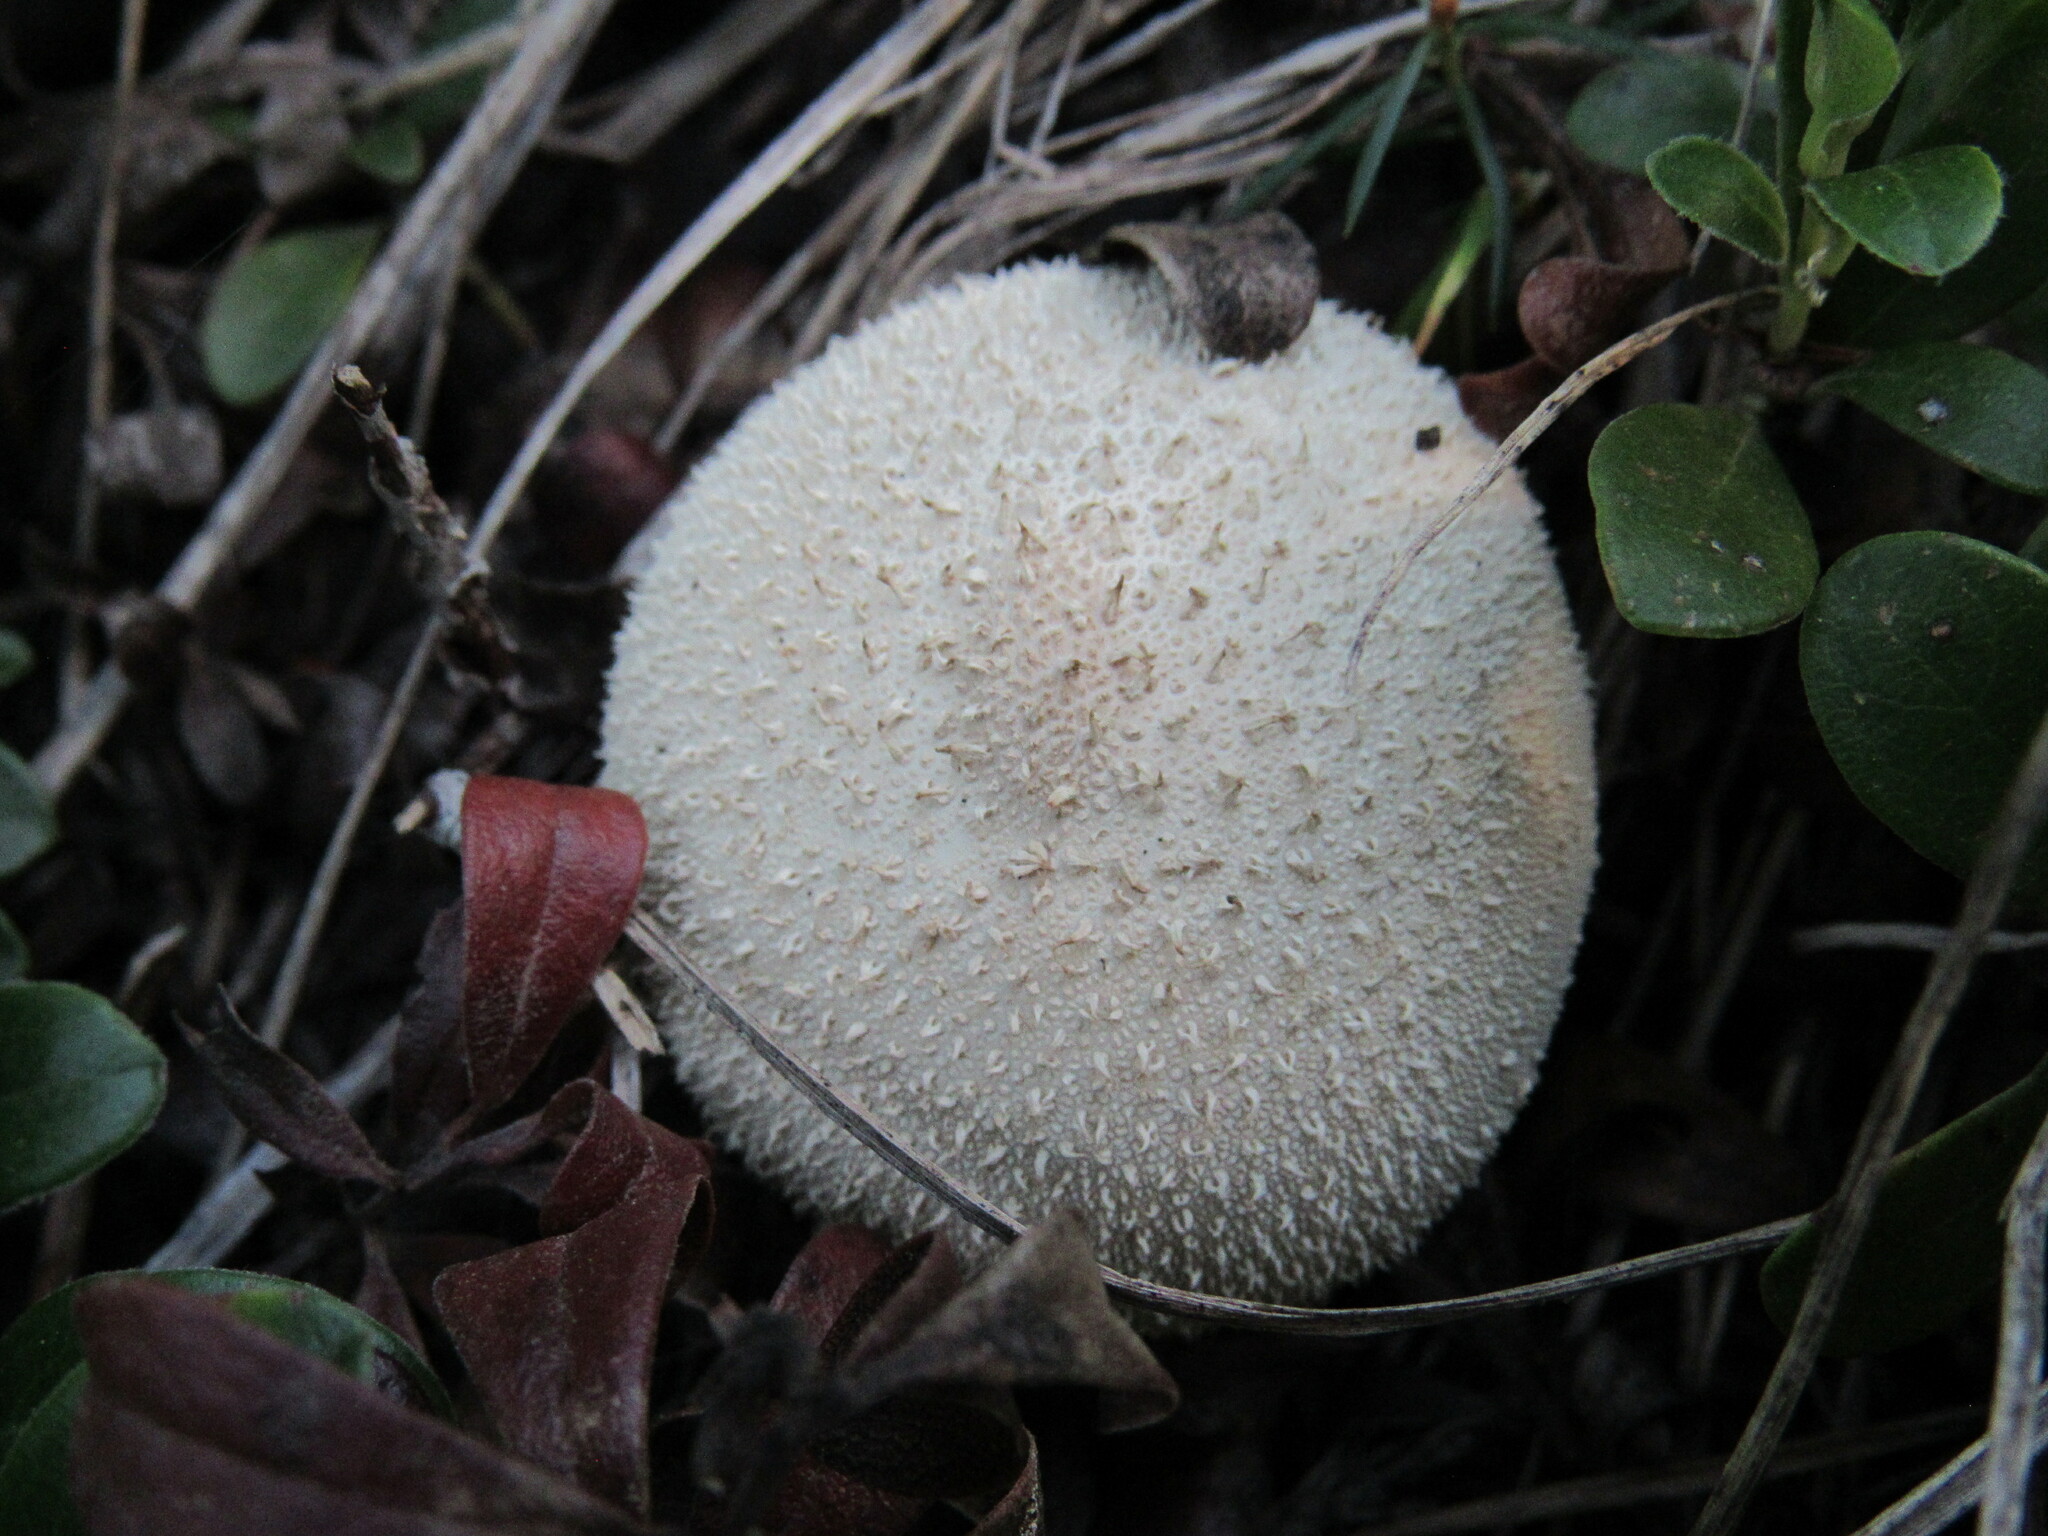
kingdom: Fungi
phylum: Basidiomycota
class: Agaricomycetes
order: Agaricales
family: Lycoperdaceae
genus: Lycoperdon
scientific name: Lycoperdon perlatum
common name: Common puffball
